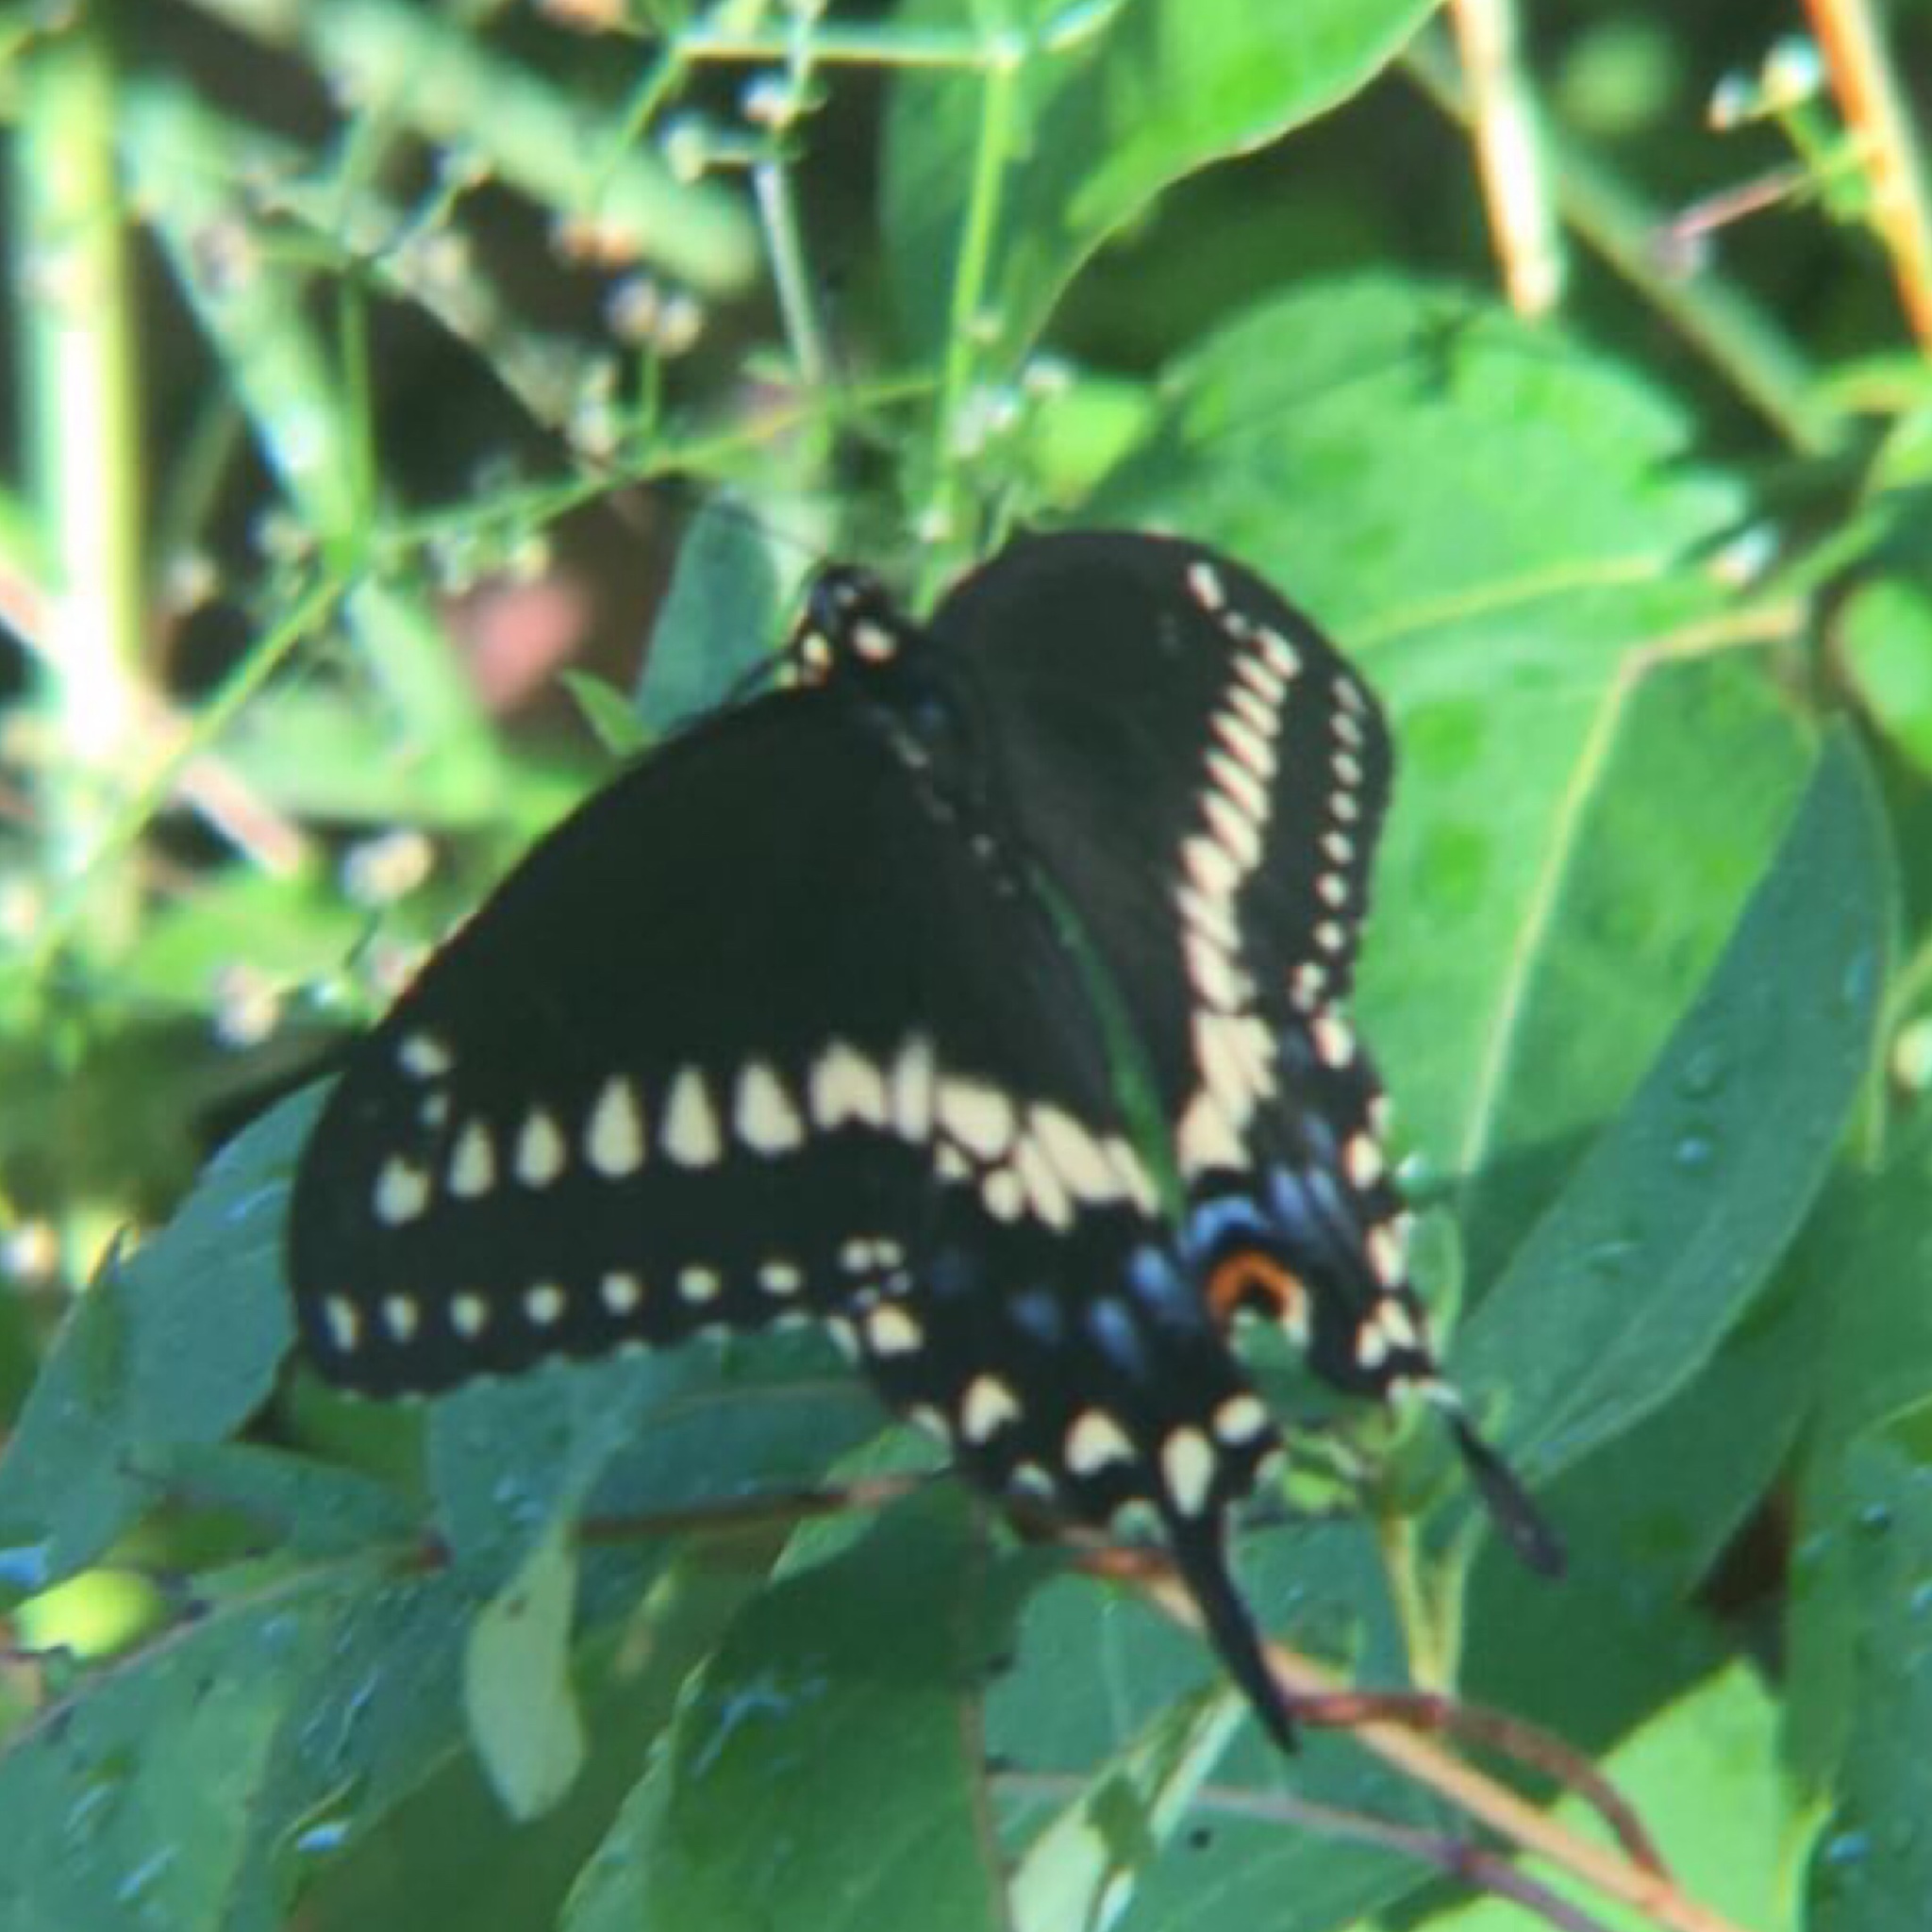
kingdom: Animalia
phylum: Arthropoda
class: Insecta
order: Lepidoptera
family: Papilionidae
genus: Papilio
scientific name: Papilio polyxenes
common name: Black swallowtail
